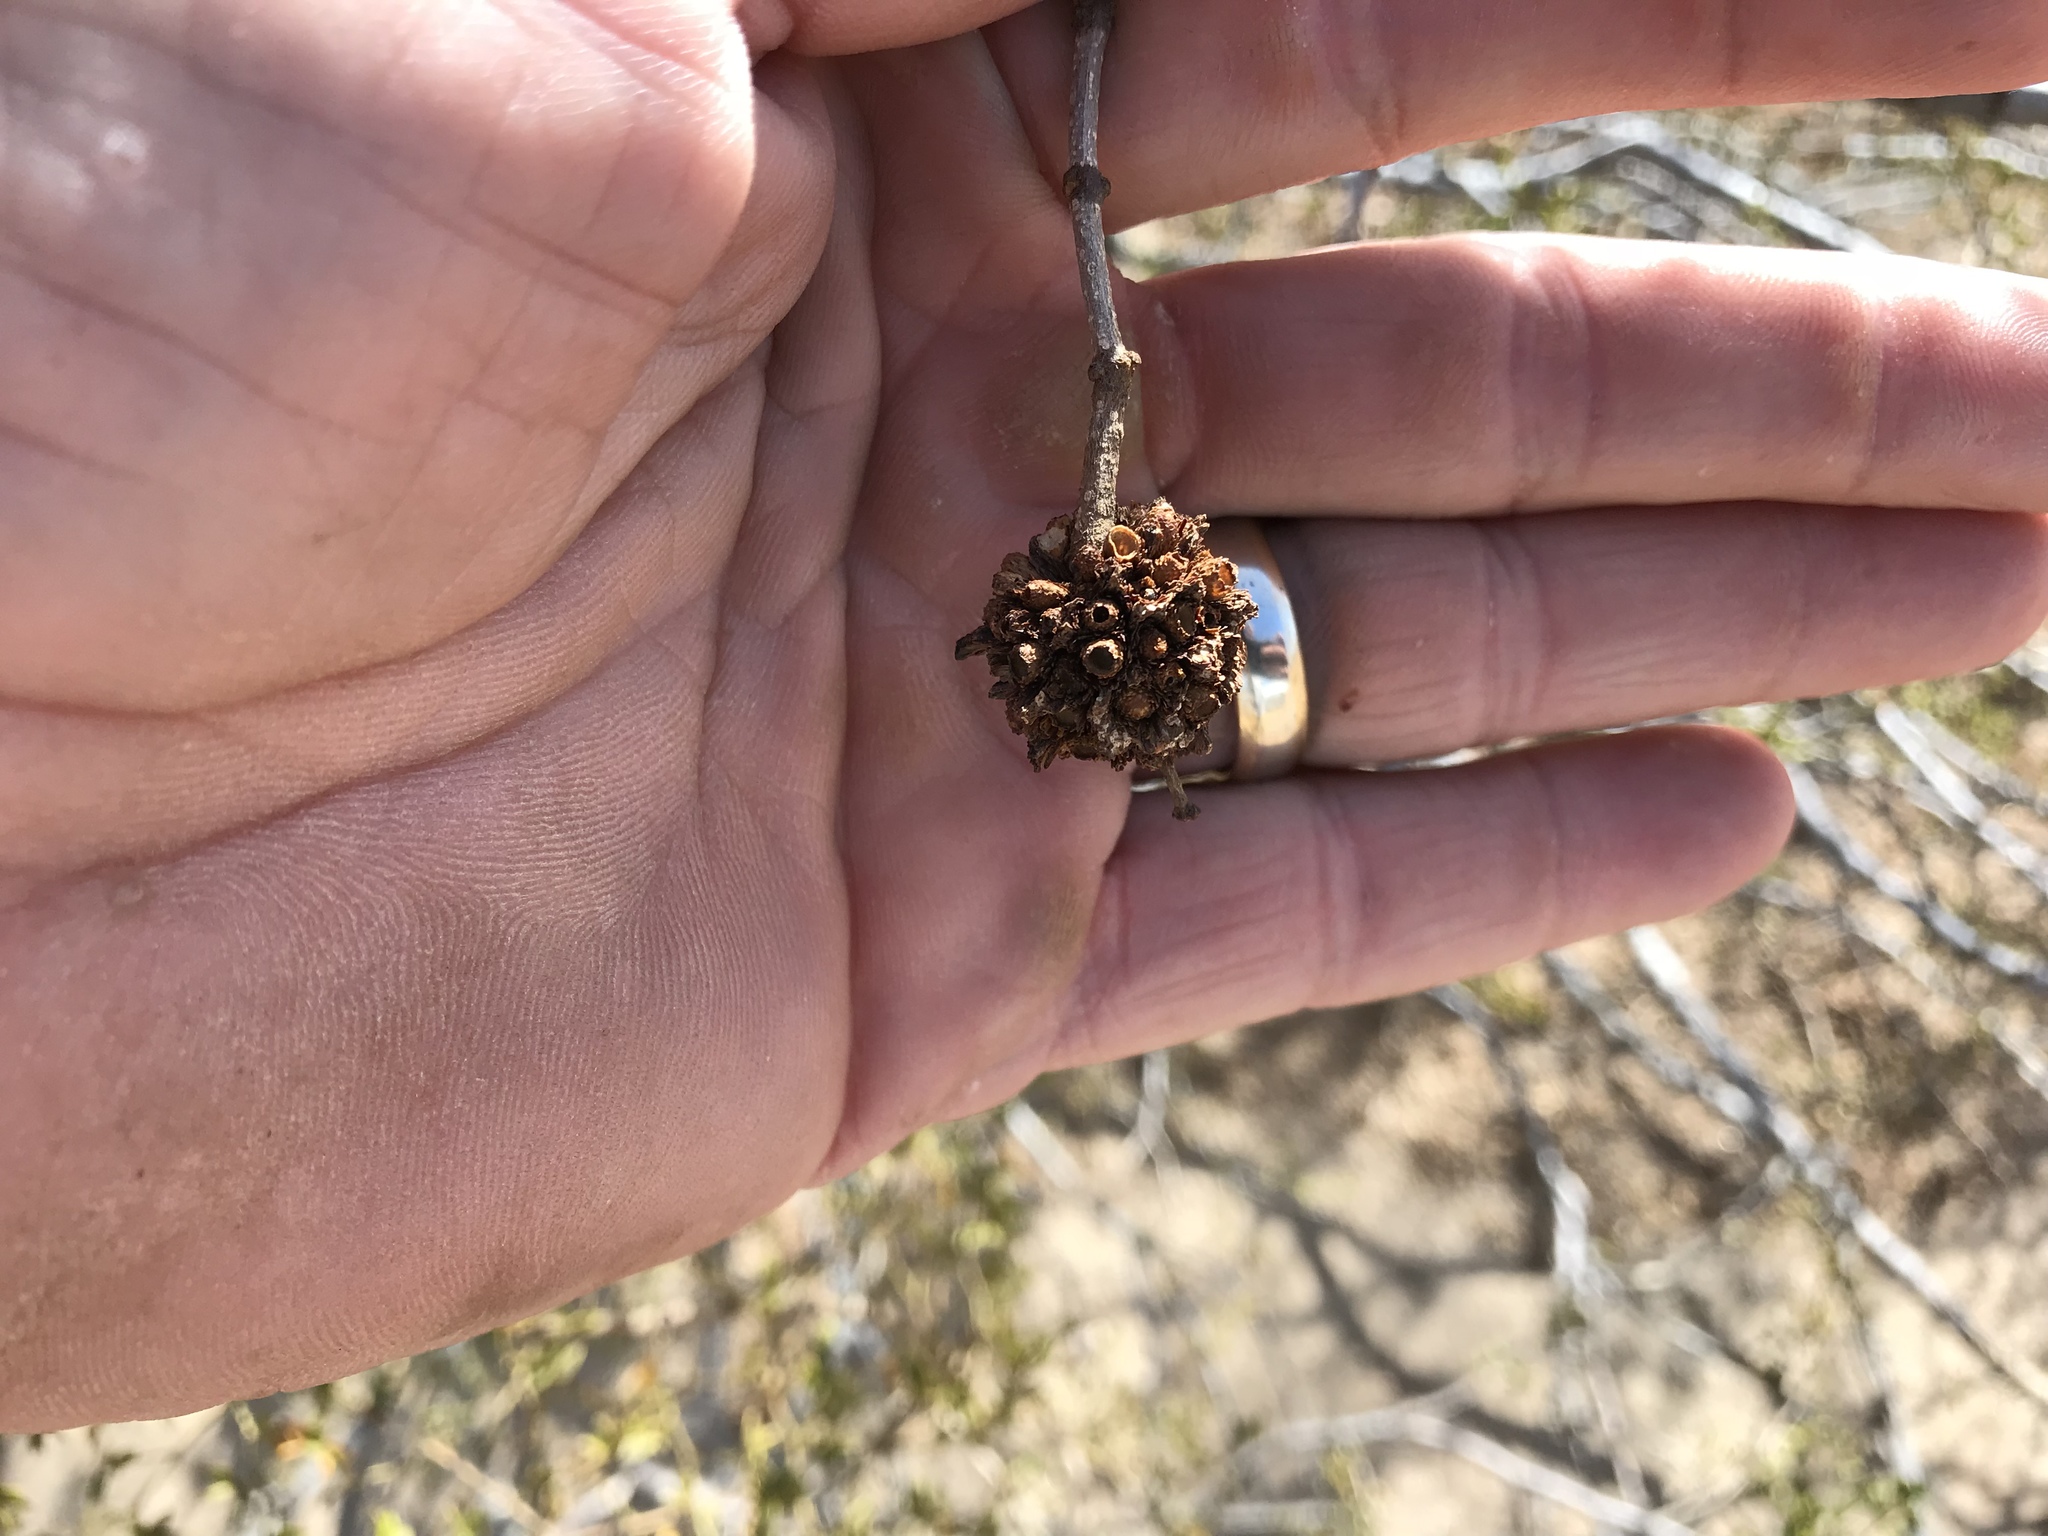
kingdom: Animalia
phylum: Arthropoda
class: Insecta
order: Diptera
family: Cecidomyiidae
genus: Asphondylia
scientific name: Asphondylia auripila
